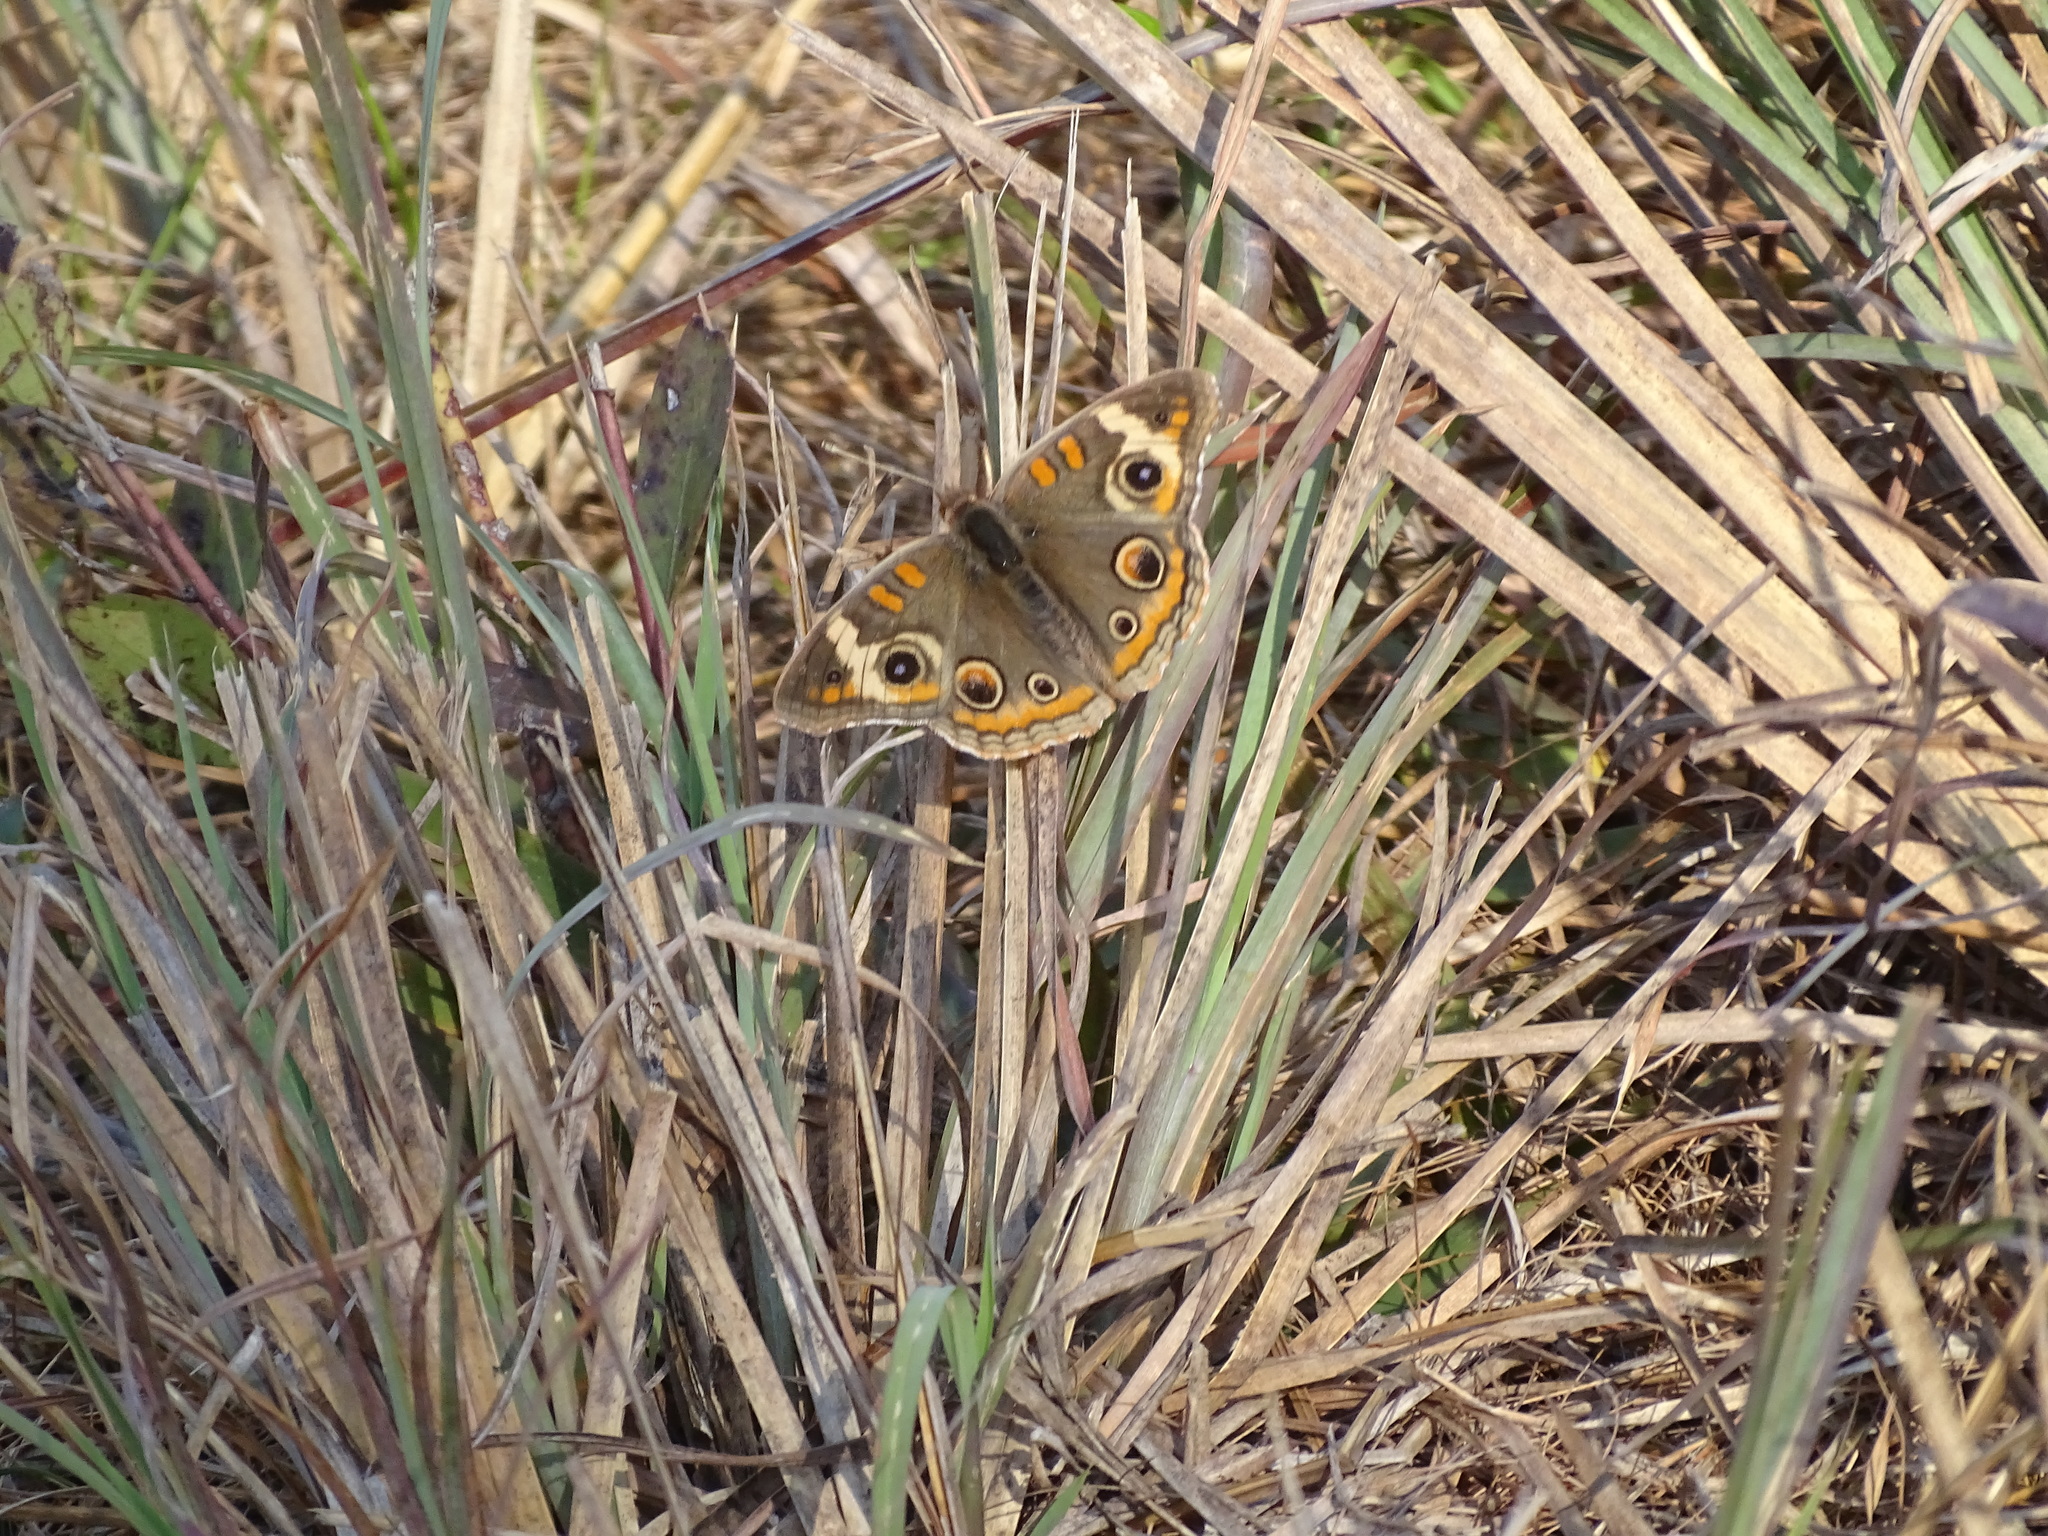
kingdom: Animalia
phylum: Arthropoda
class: Insecta
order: Lepidoptera
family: Nymphalidae
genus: Junonia
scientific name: Junonia coenia
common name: Common buckeye
